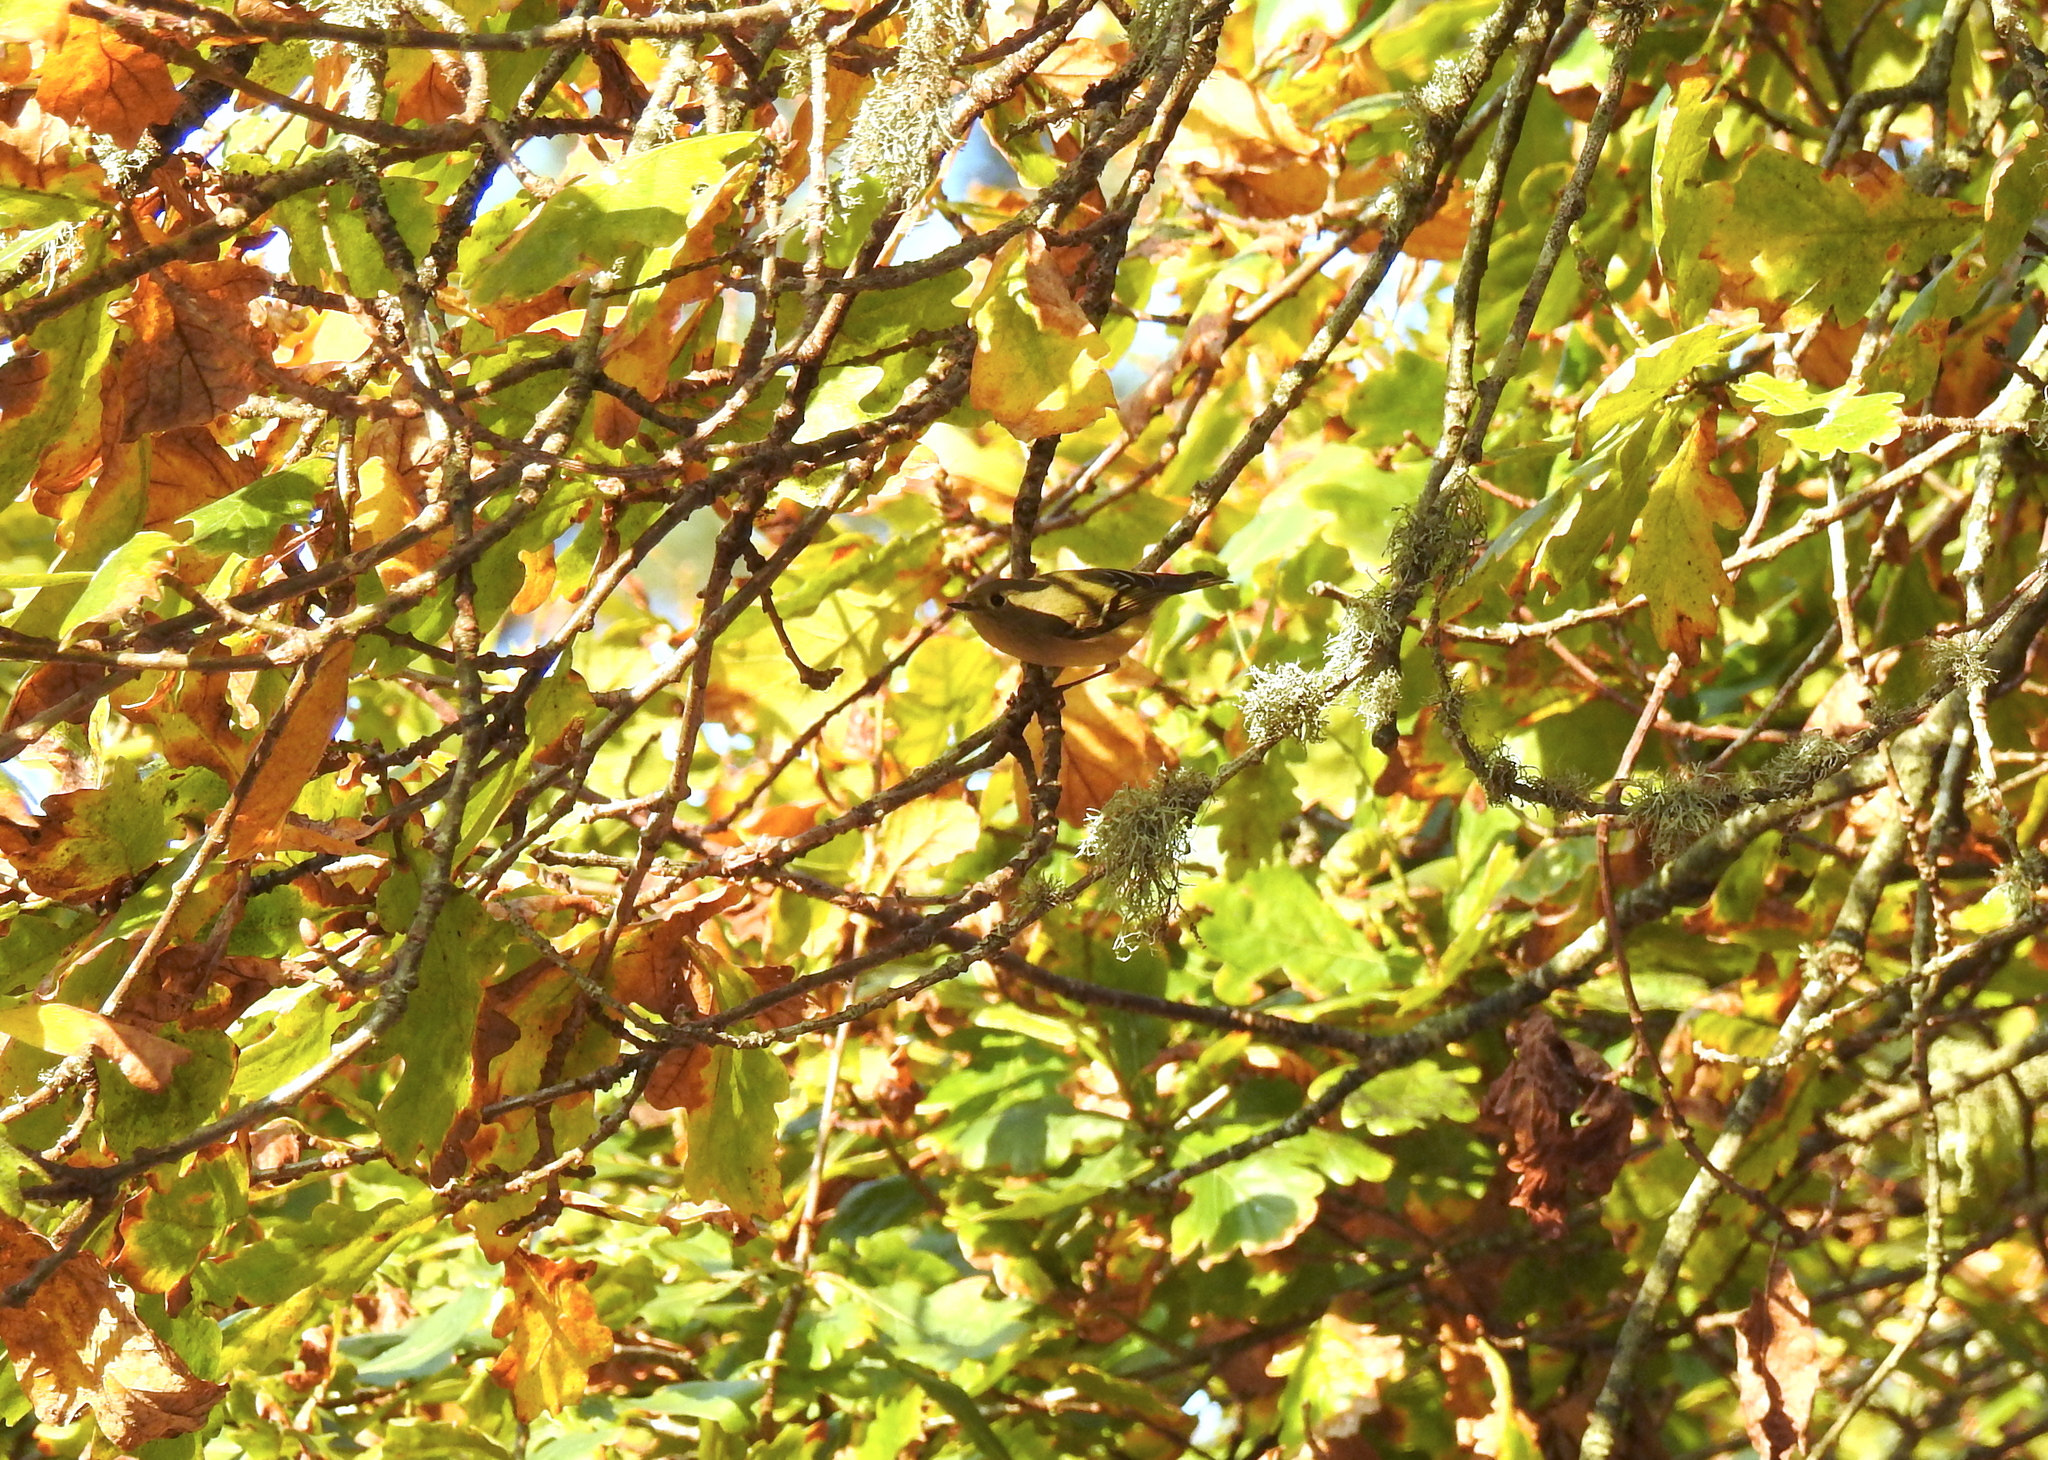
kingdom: Animalia
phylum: Chordata
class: Aves
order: Passeriformes
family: Regulidae
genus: Regulus
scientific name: Regulus calendula
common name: Ruby-crowned kinglet
